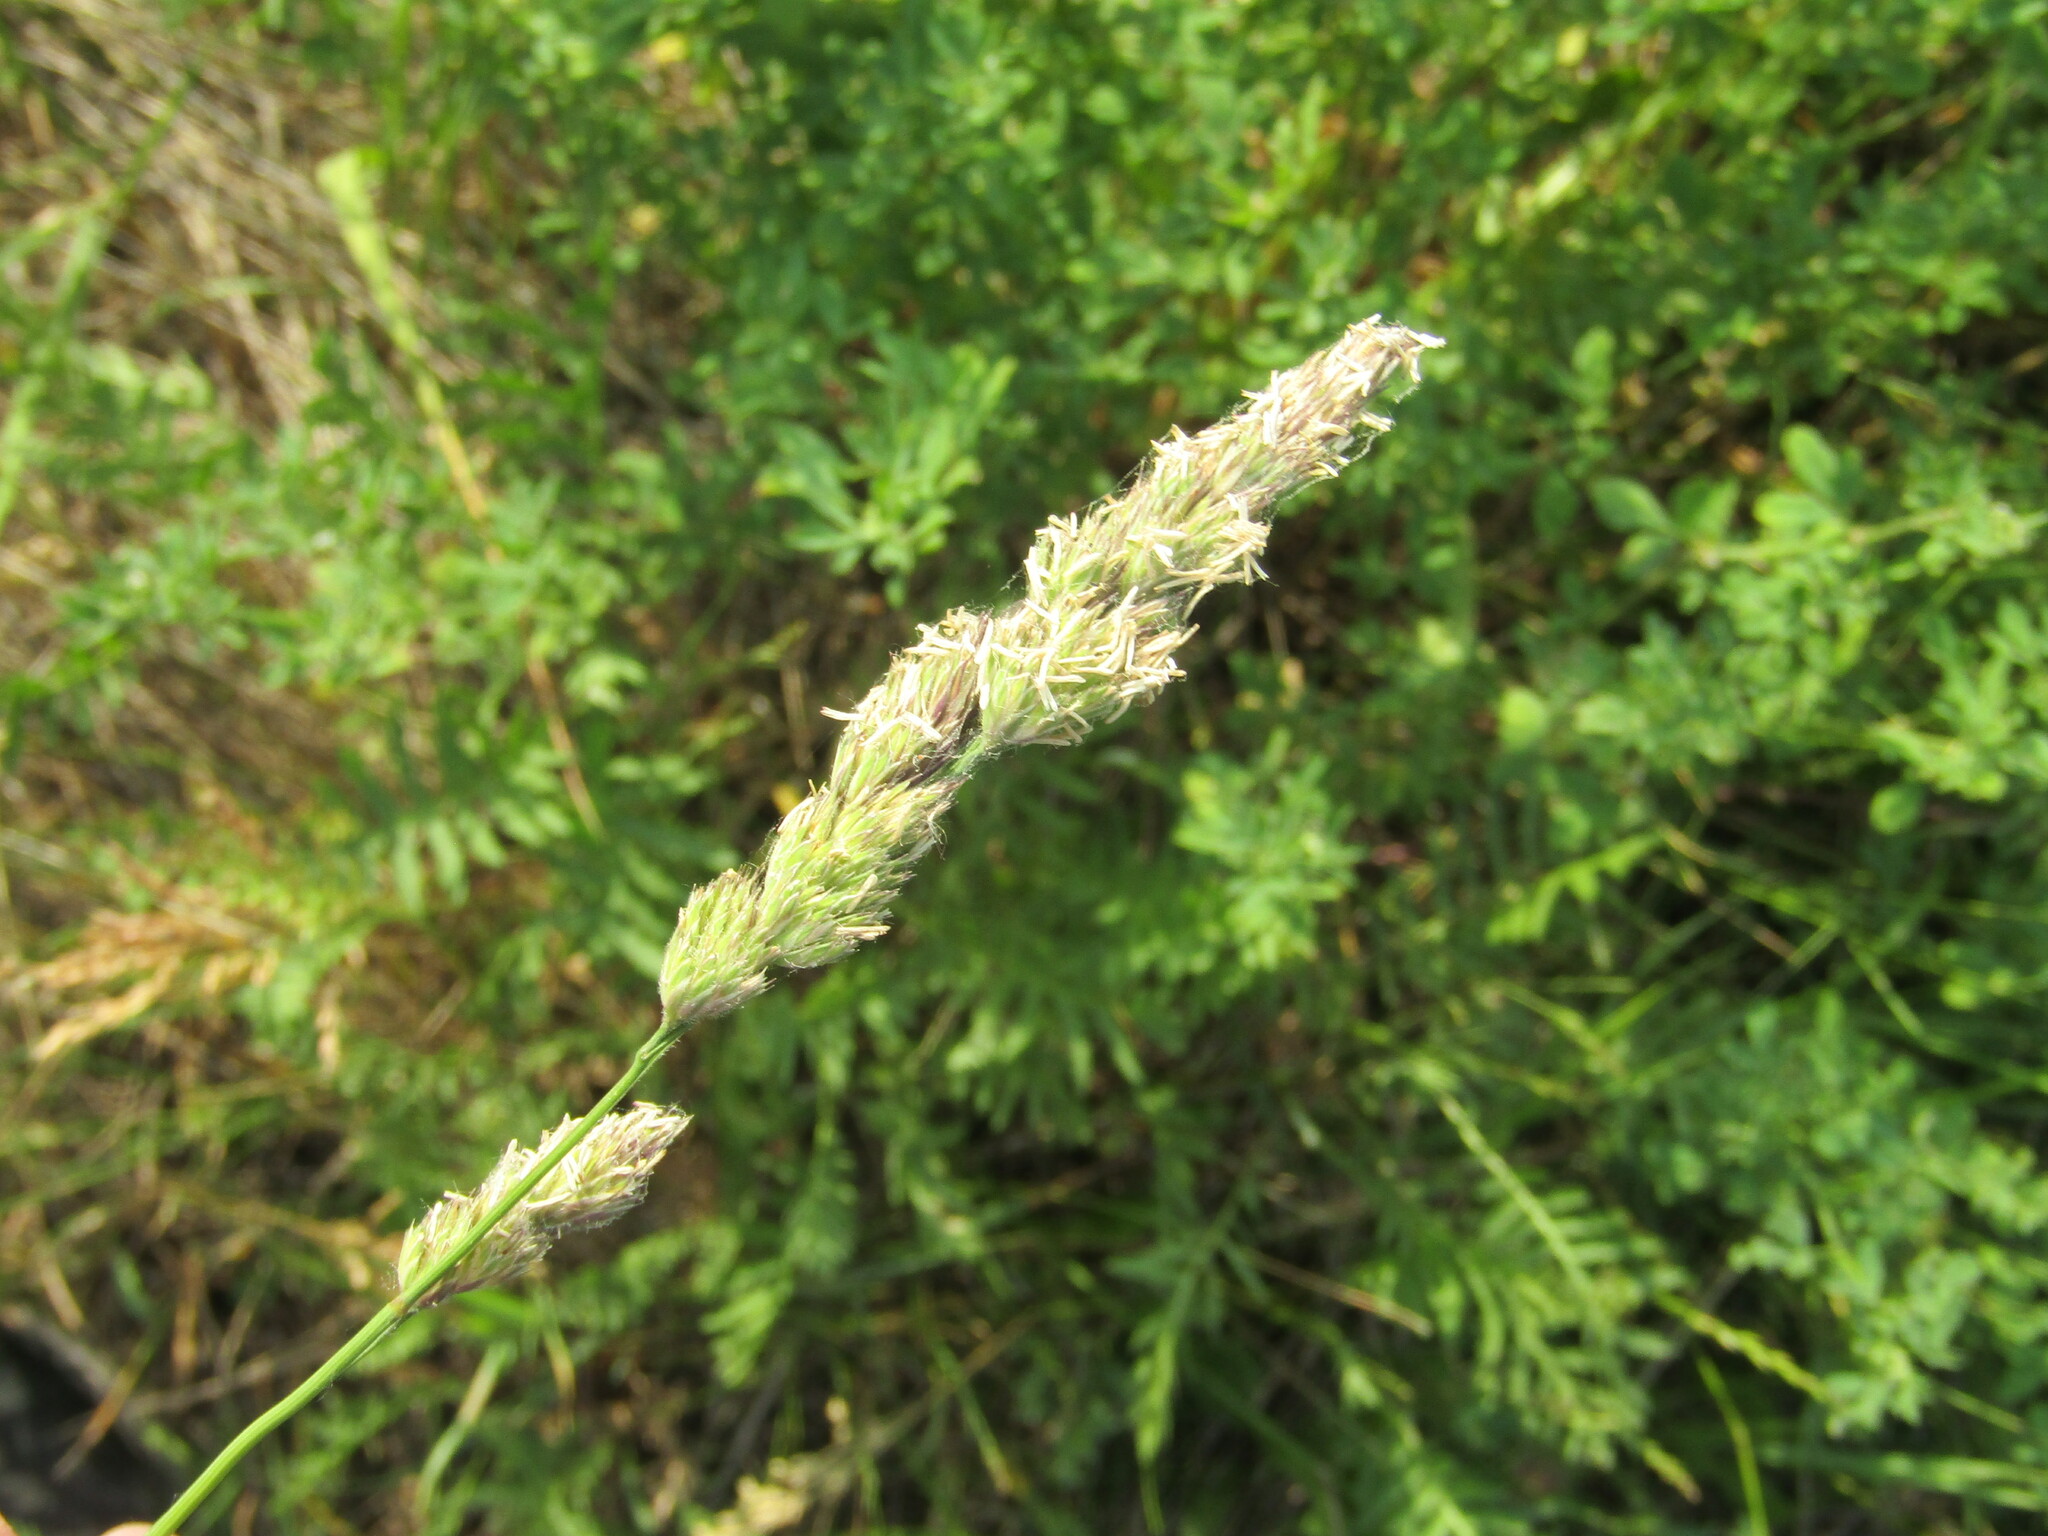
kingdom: Plantae
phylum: Tracheophyta
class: Liliopsida
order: Poales
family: Poaceae
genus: Dactylis
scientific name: Dactylis glomerata
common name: Orchardgrass
